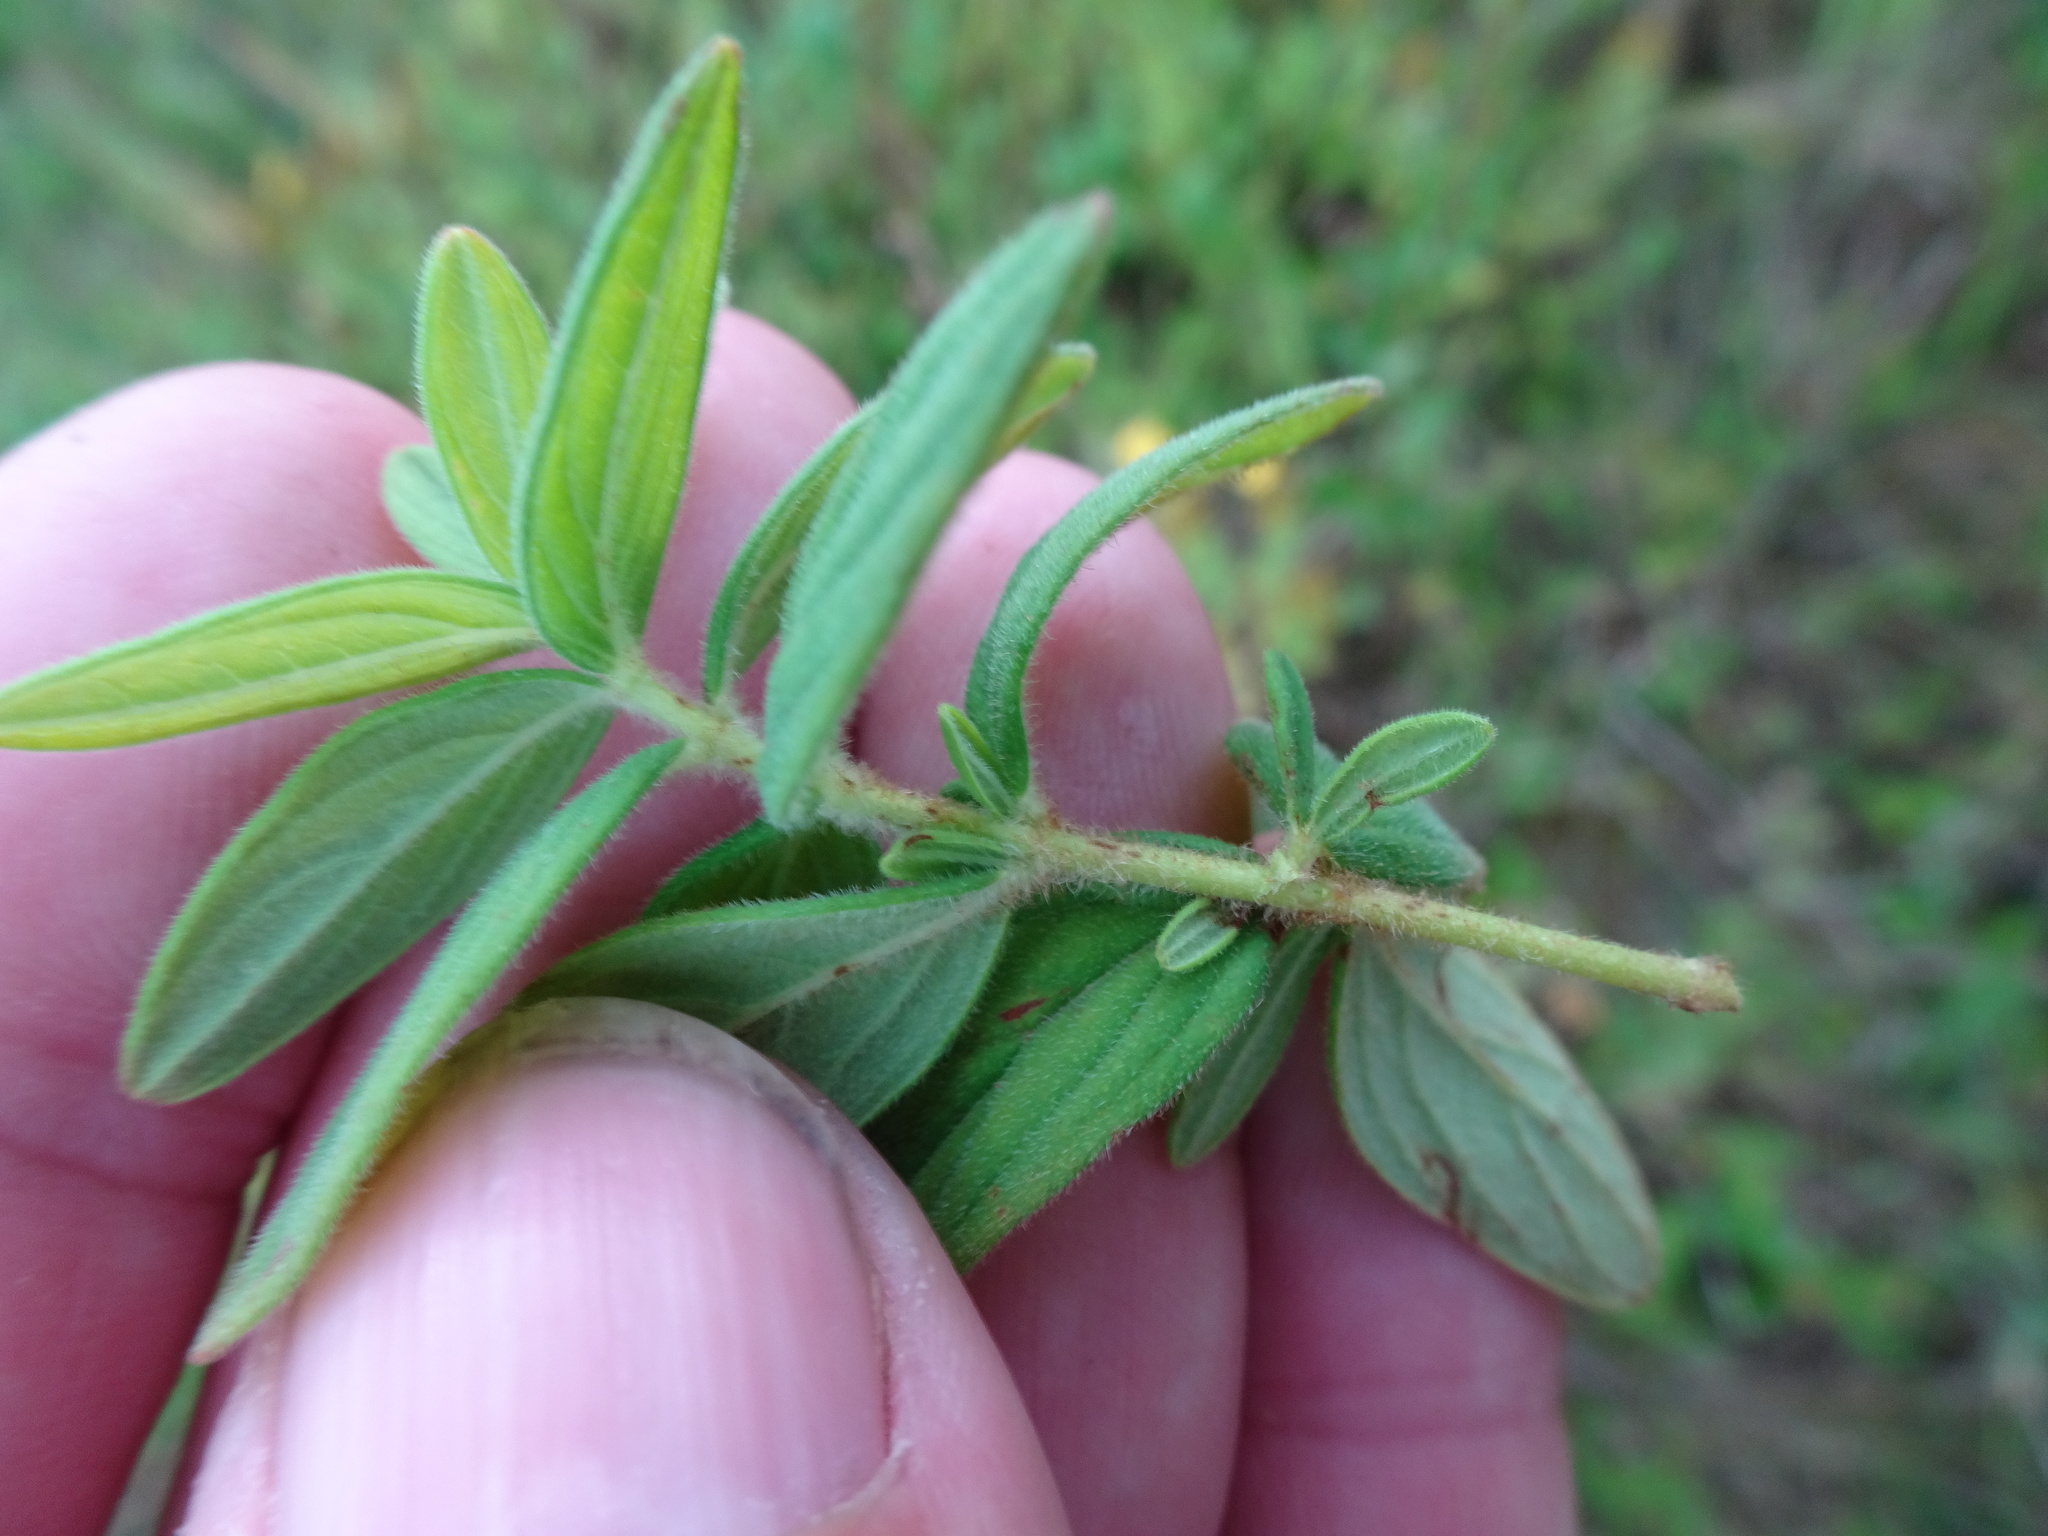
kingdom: Plantae
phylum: Tracheophyta
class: Magnoliopsida
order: Malpighiales
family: Hypericaceae
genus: Hypericum
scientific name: Hypericum hirsutum
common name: Hairy st. john's-wort
